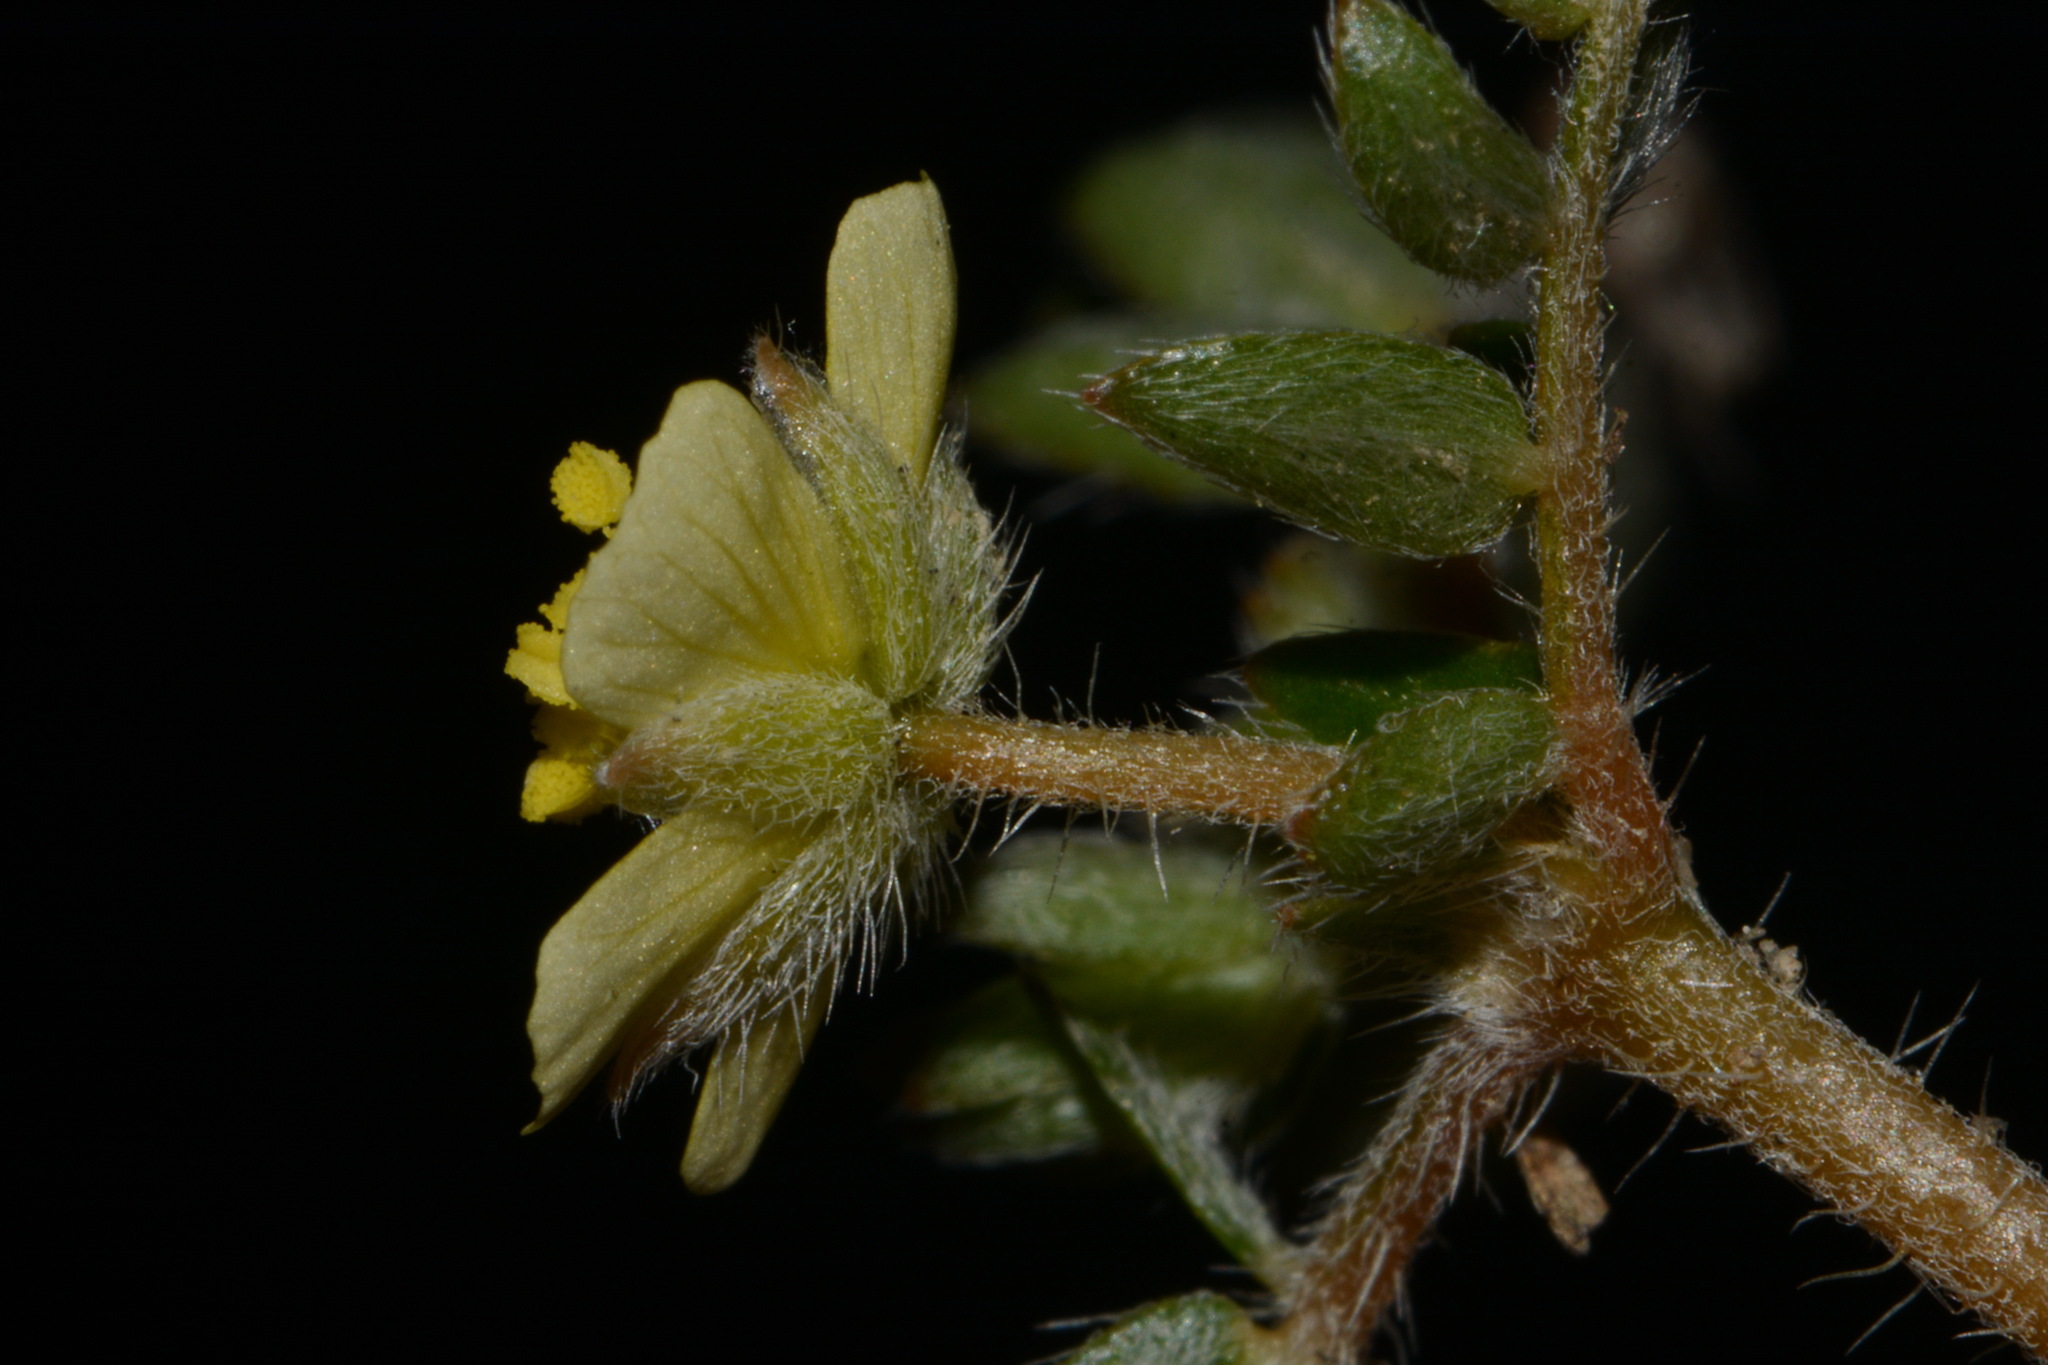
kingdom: Plantae
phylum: Tracheophyta
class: Magnoliopsida
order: Zygophyllales
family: Zygophyllaceae
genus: Tribulus
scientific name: Tribulus terrestris
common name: Puncturevine
